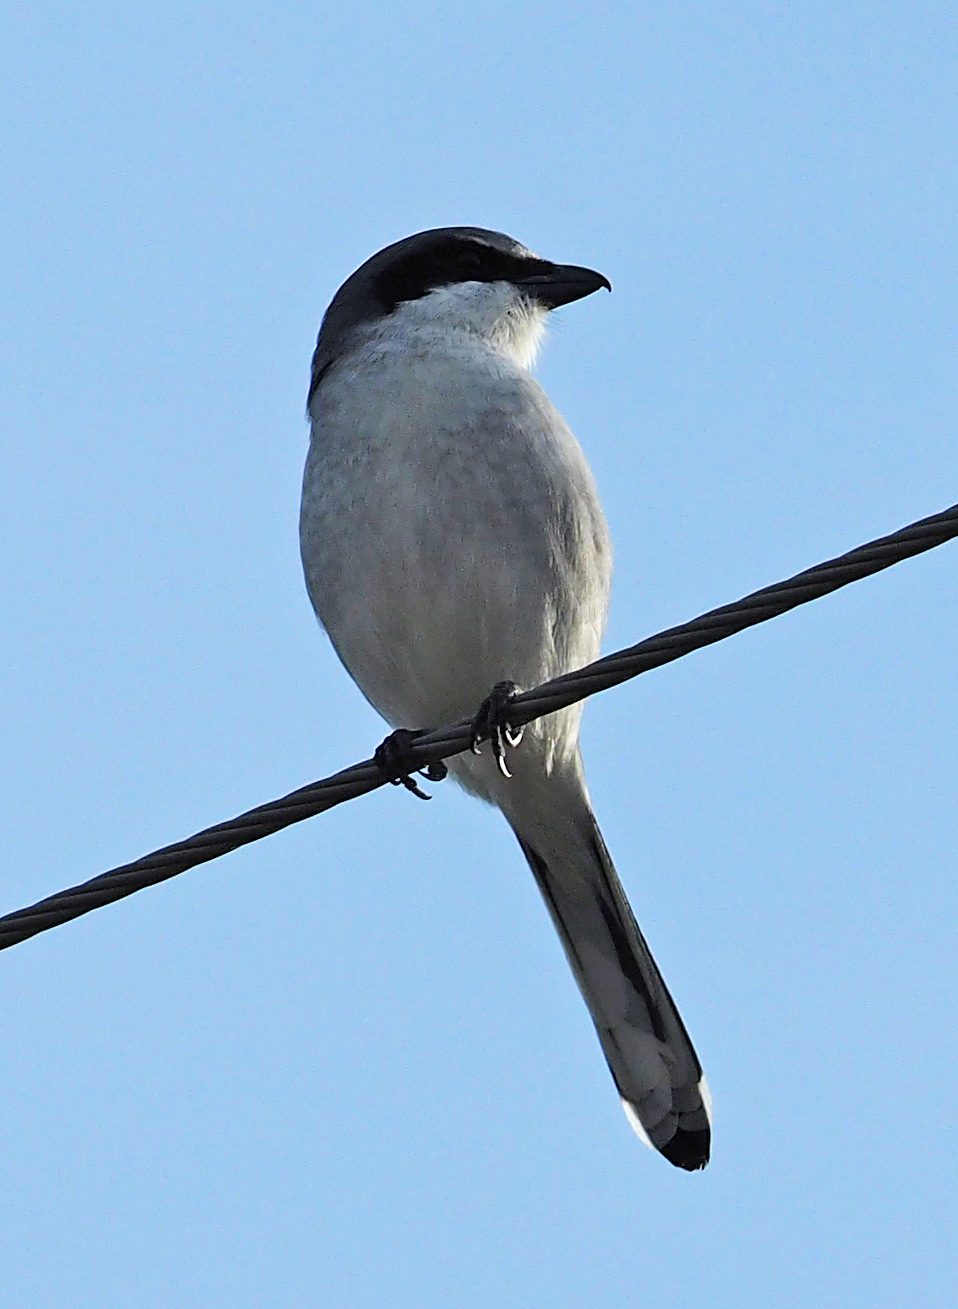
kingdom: Animalia
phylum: Chordata
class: Aves
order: Passeriformes
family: Laniidae
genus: Lanius
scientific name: Lanius ludovicianus
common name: Loggerhead shrike
